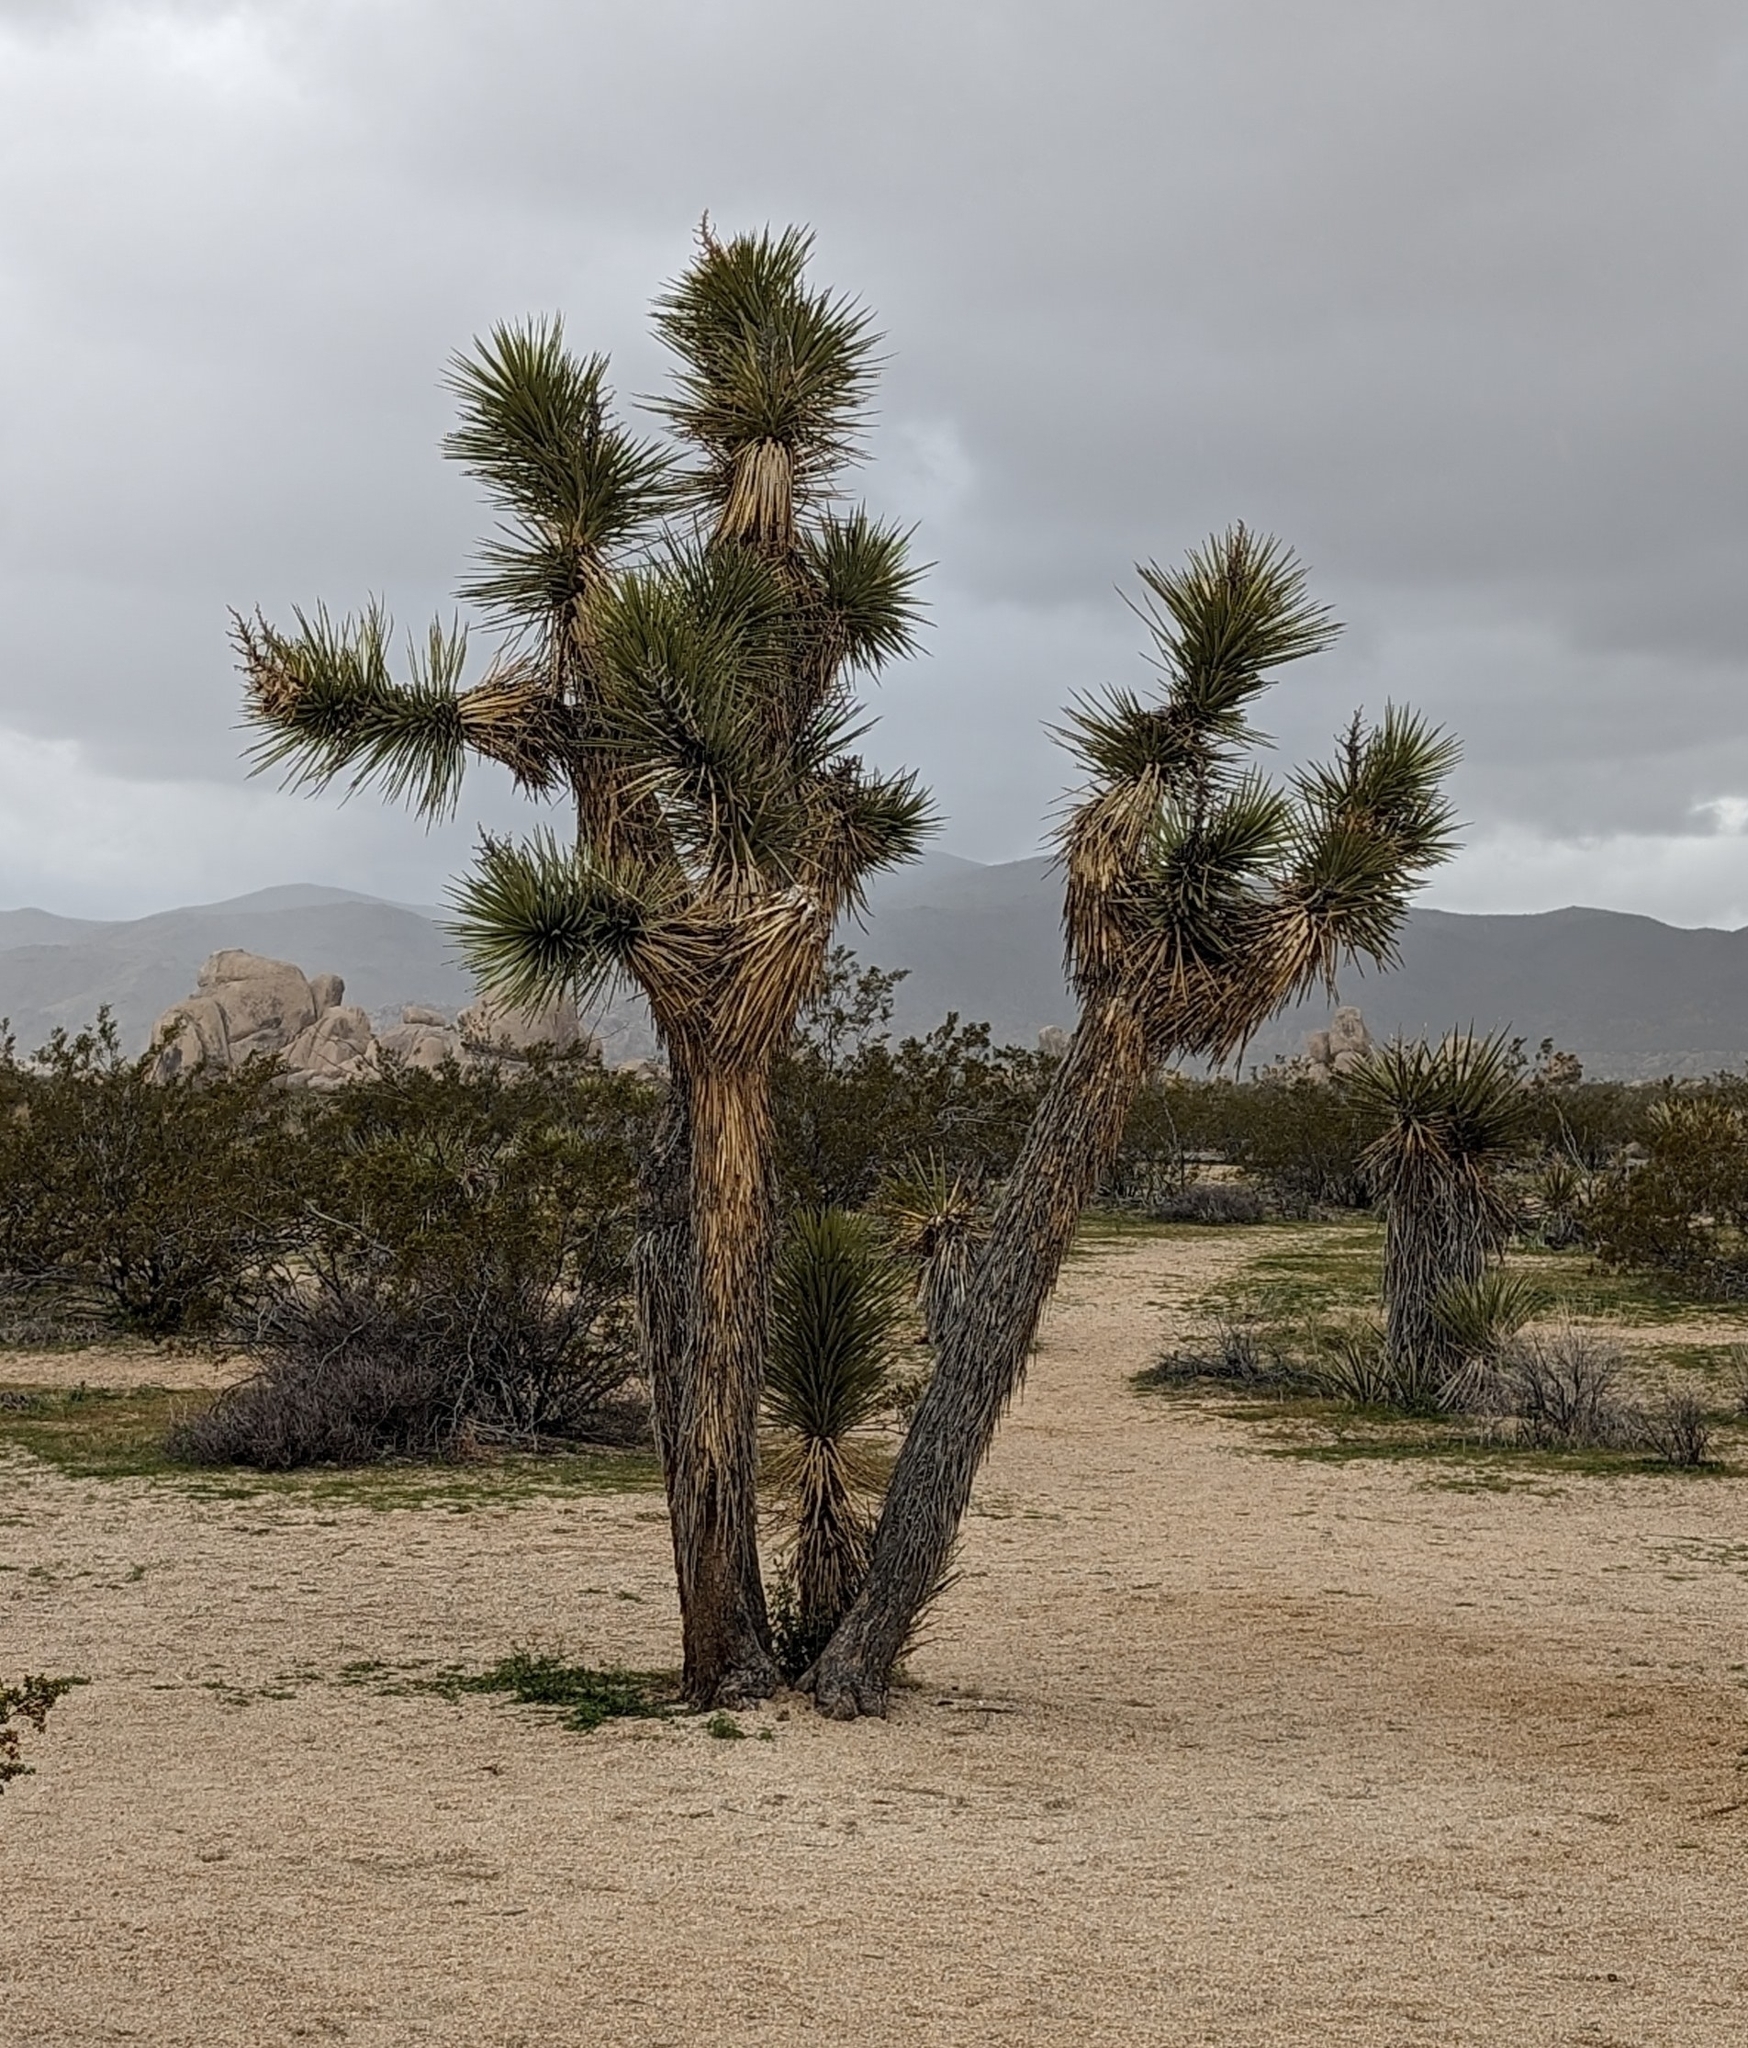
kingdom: Plantae
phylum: Tracheophyta
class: Liliopsida
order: Asparagales
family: Asparagaceae
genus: Yucca
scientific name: Yucca brevifolia
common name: Joshua tree
